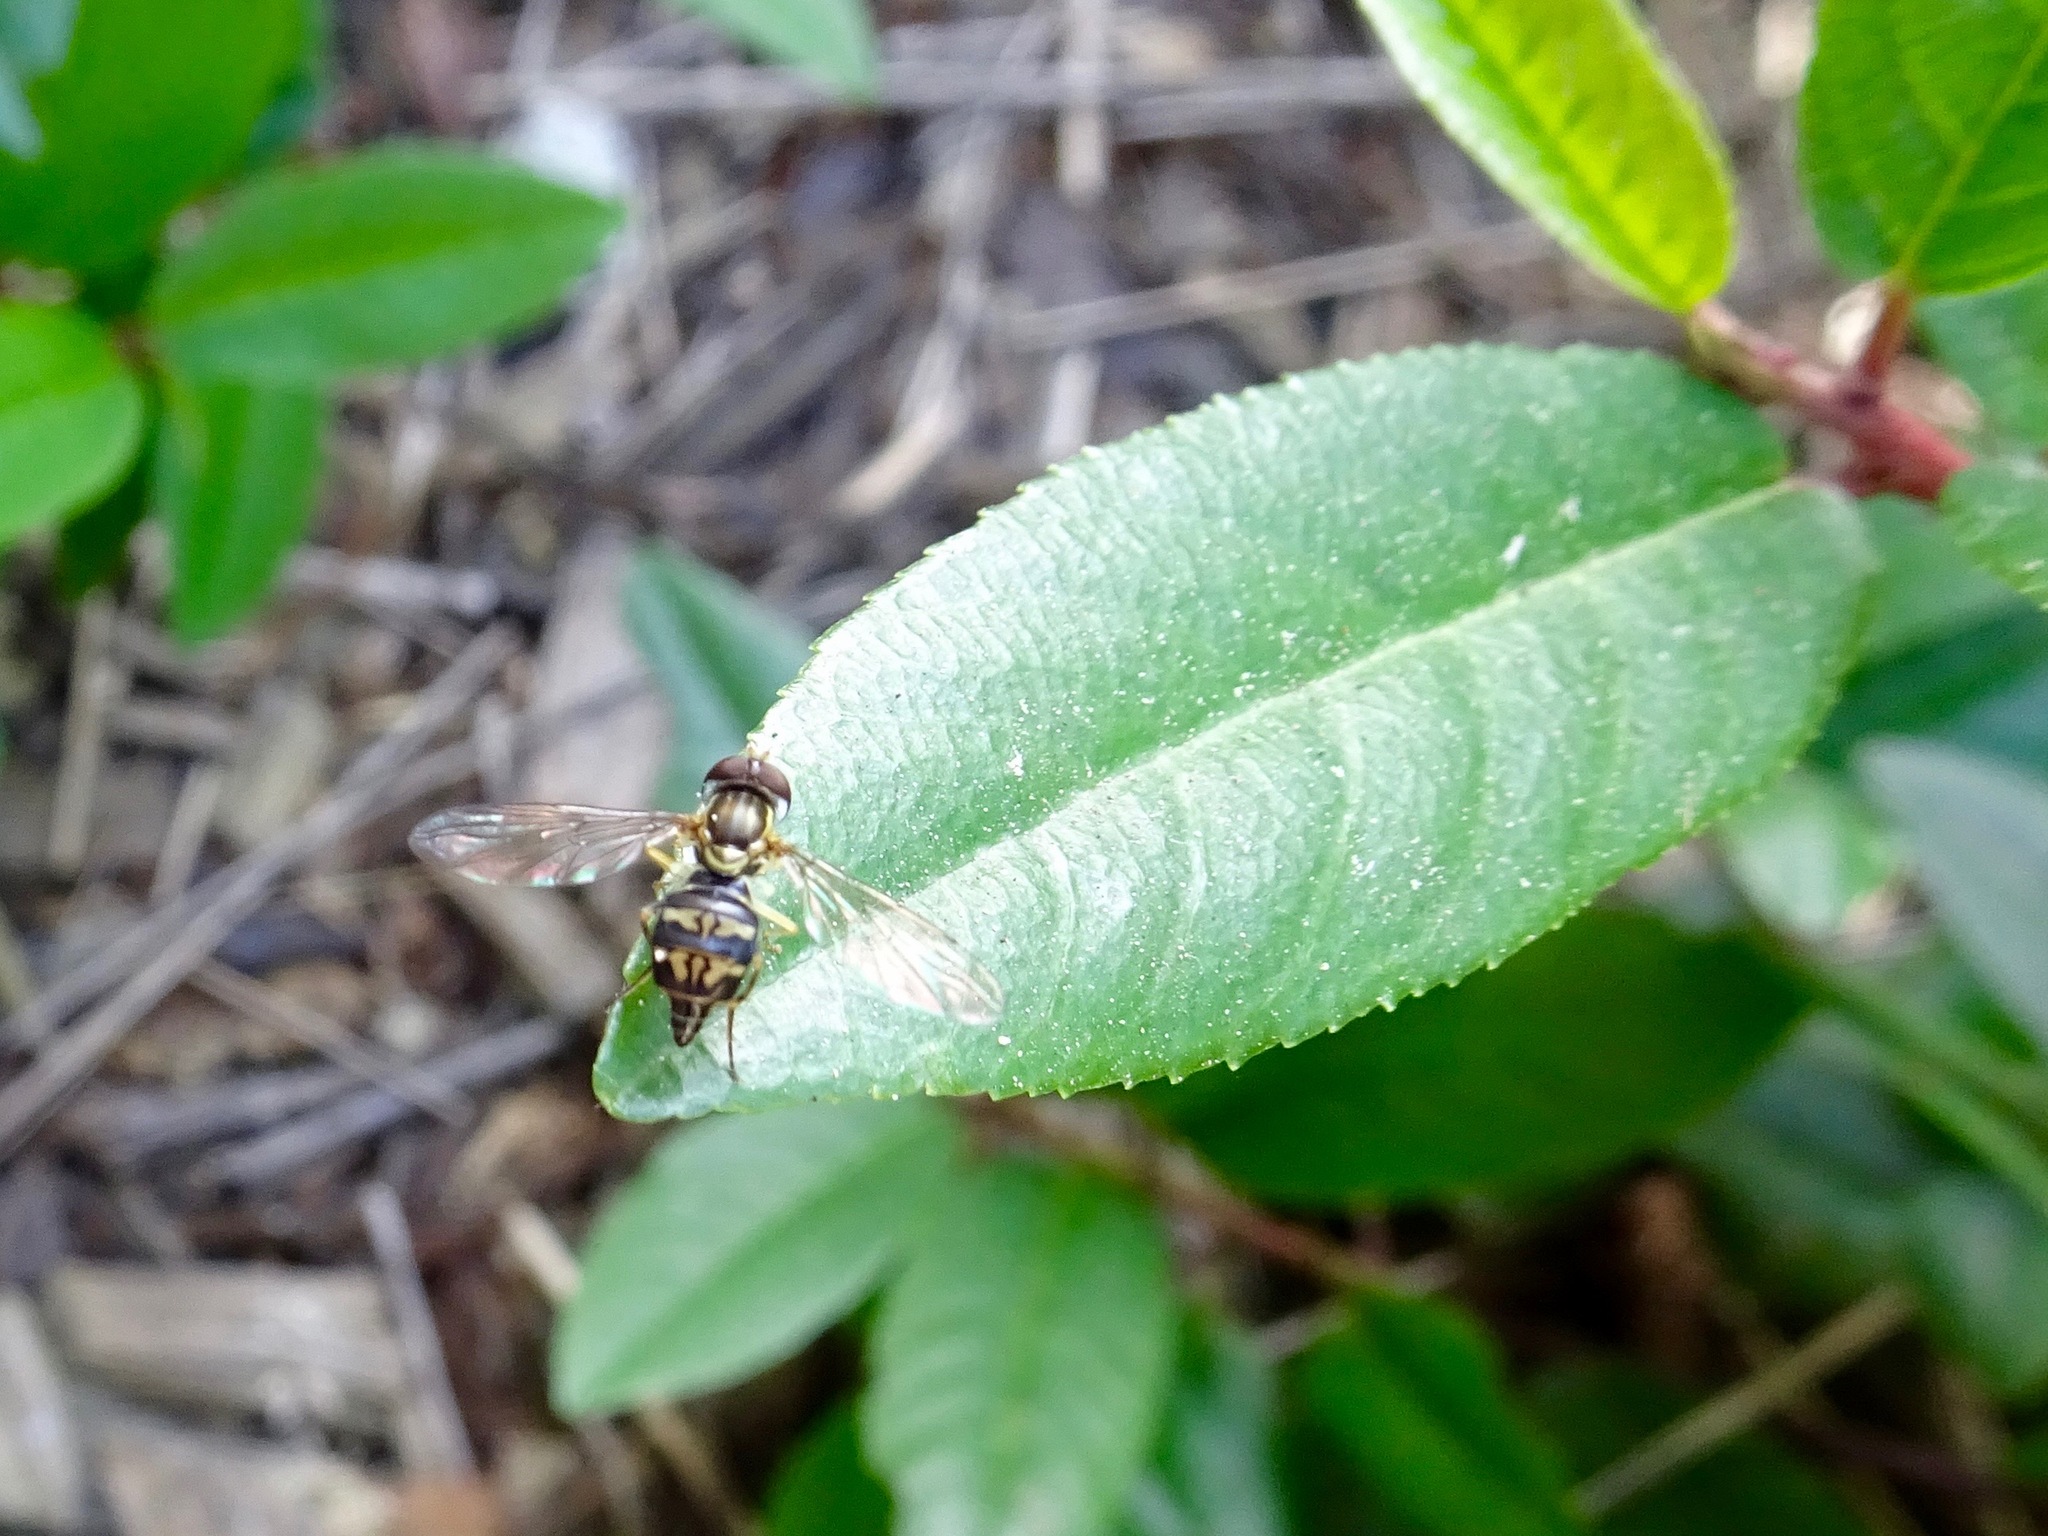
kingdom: Animalia
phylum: Arthropoda
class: Insecta
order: Diptera
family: Syrphidae
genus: Toxomerus
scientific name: Toxomerus occidentalis
